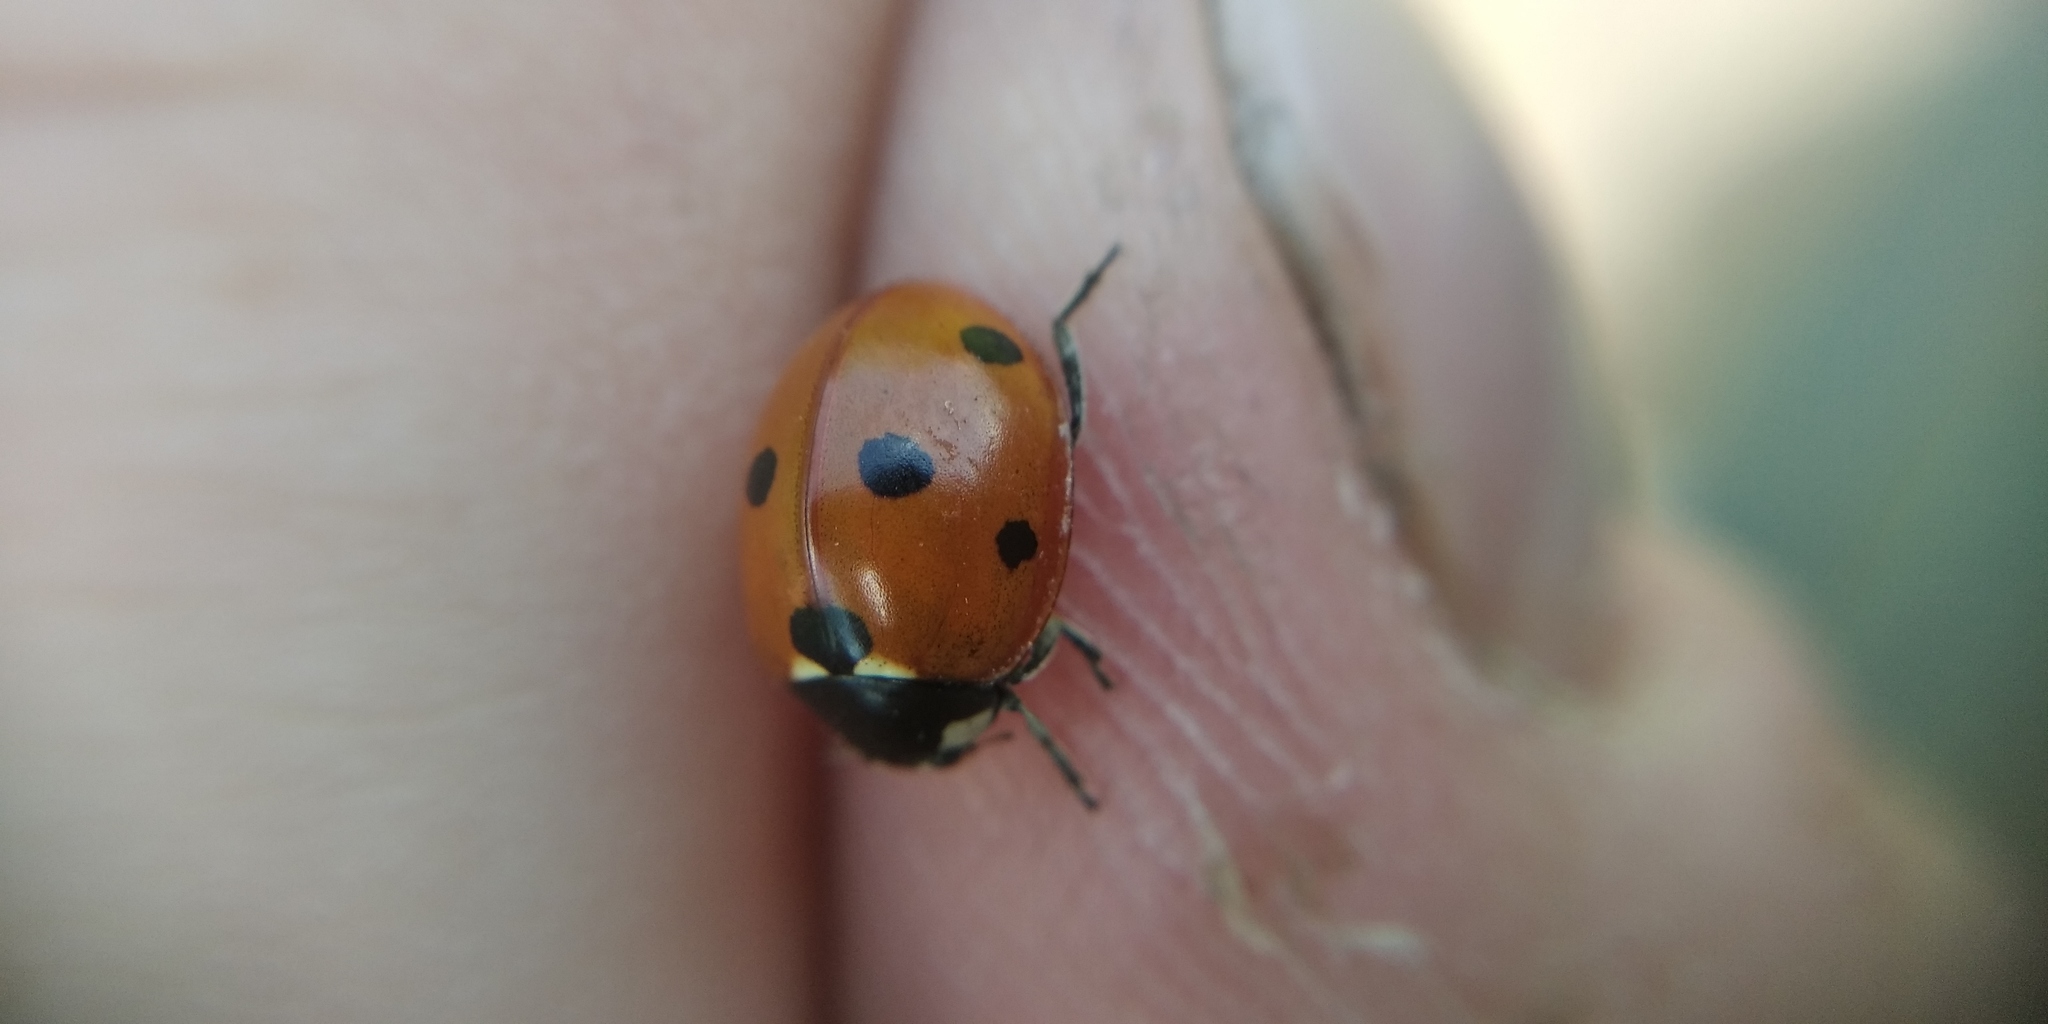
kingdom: Animalia
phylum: Arthropoda
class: Insecta
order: Coleoptera
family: Coccinellidae
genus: Coccinella
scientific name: Coccinella septempunctata
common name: Sevenspotted lady beetle
